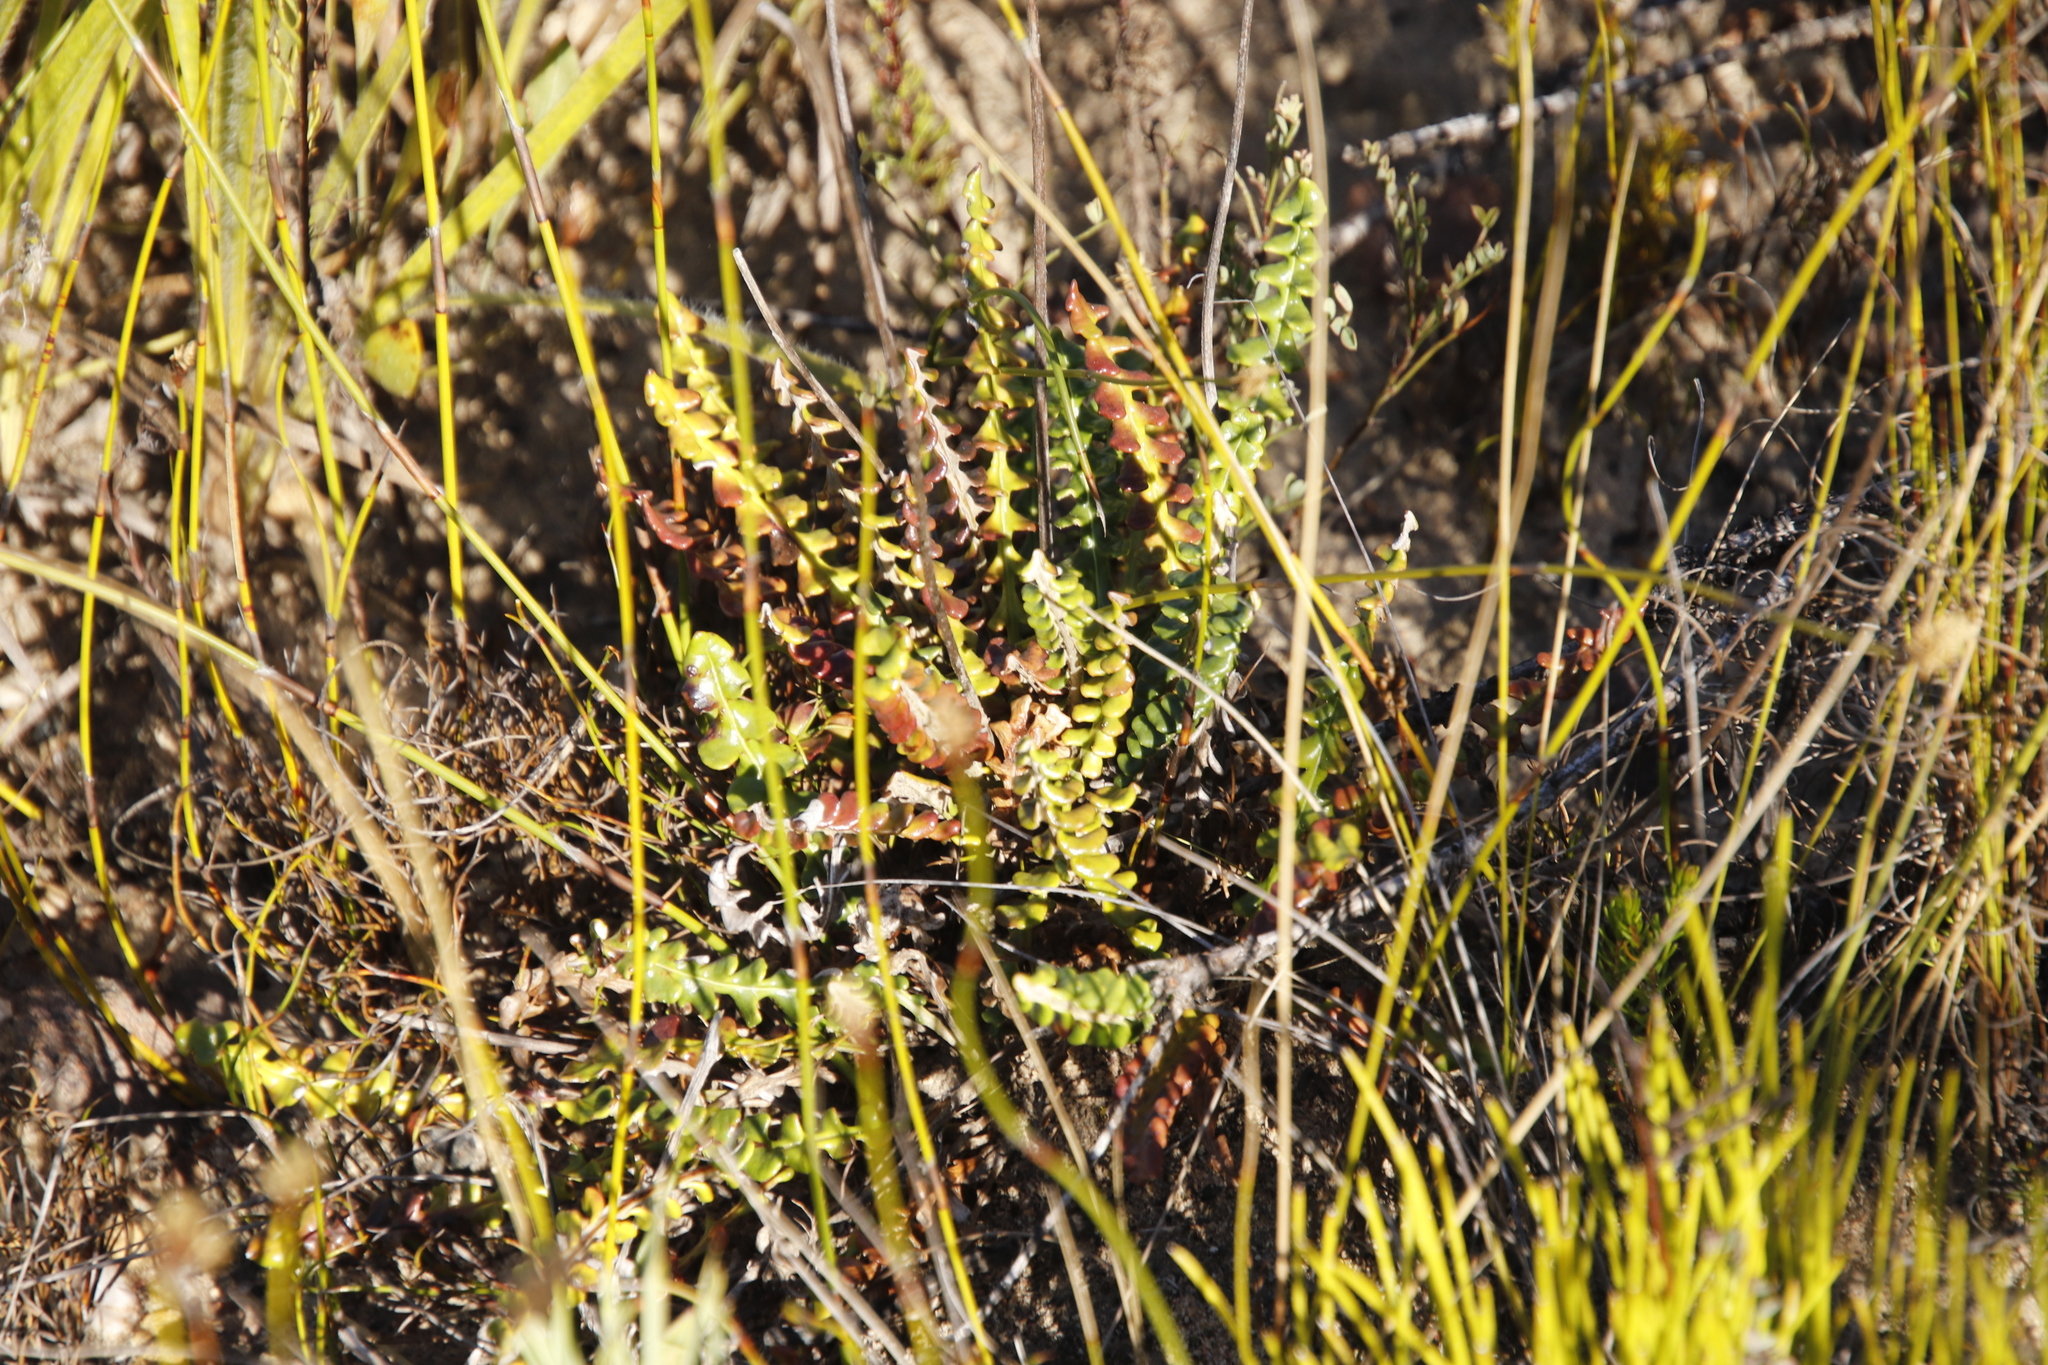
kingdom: Plantae
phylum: Tracheophyta
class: Magnoliopsida
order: Asterales
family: Asteraceae
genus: Gerbera
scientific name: Gerbera linnaei
